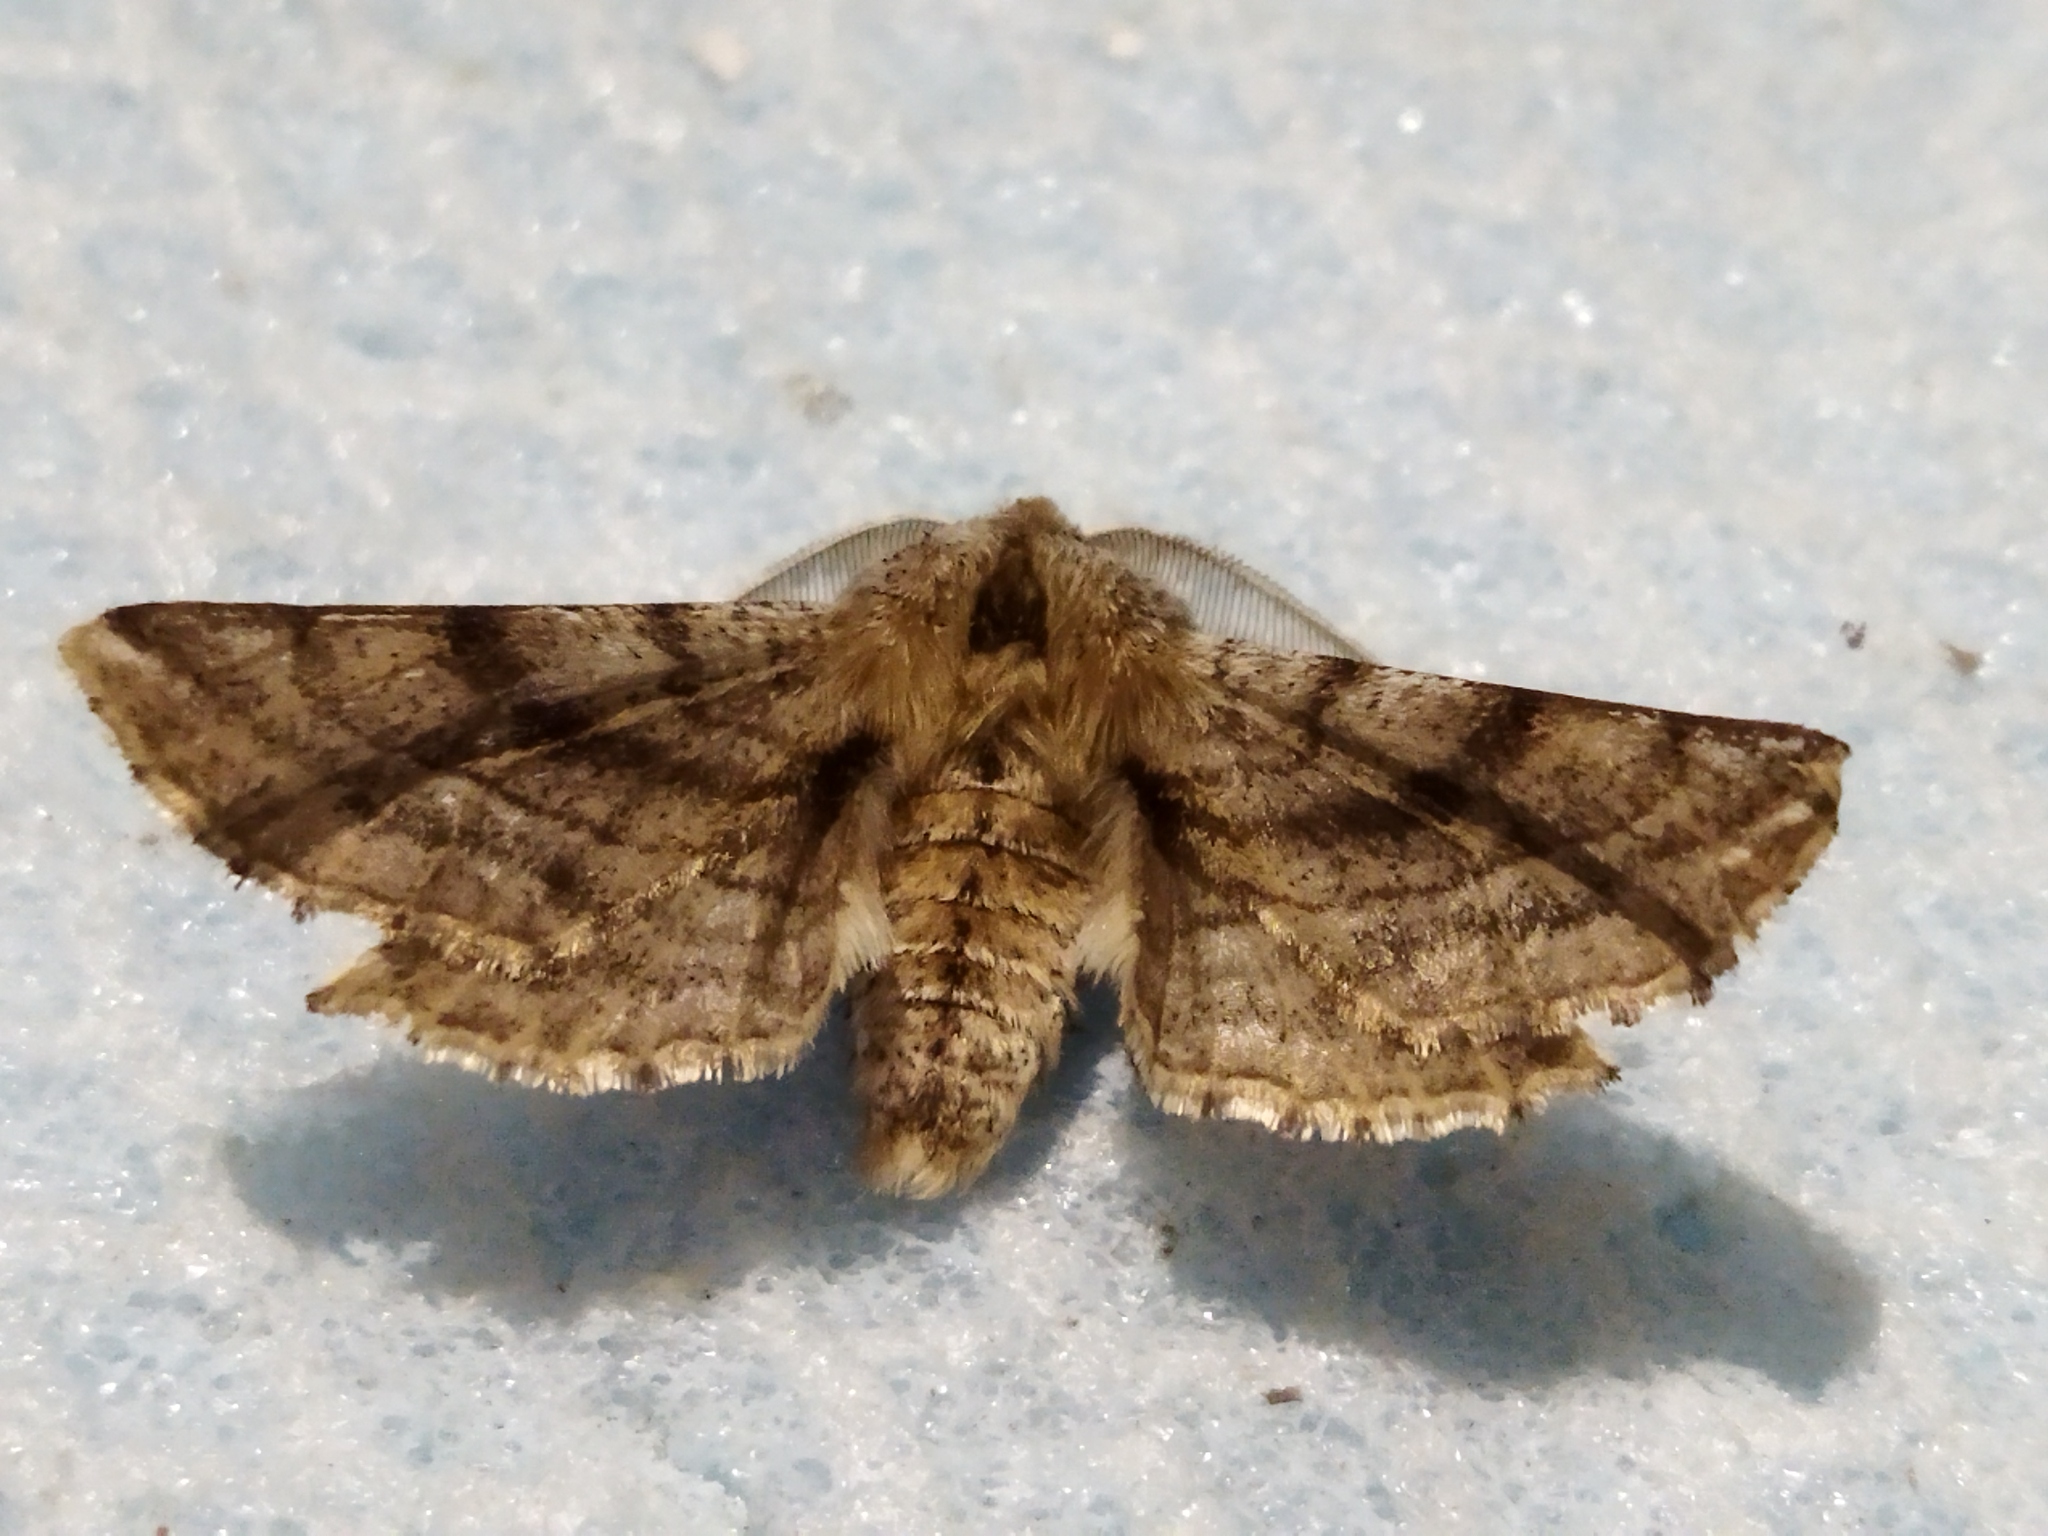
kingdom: Animalia
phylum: Arthropoda
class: Insecta
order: Lepidoptera
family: Geometridae
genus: Apochima
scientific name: Apochima flabellaria
